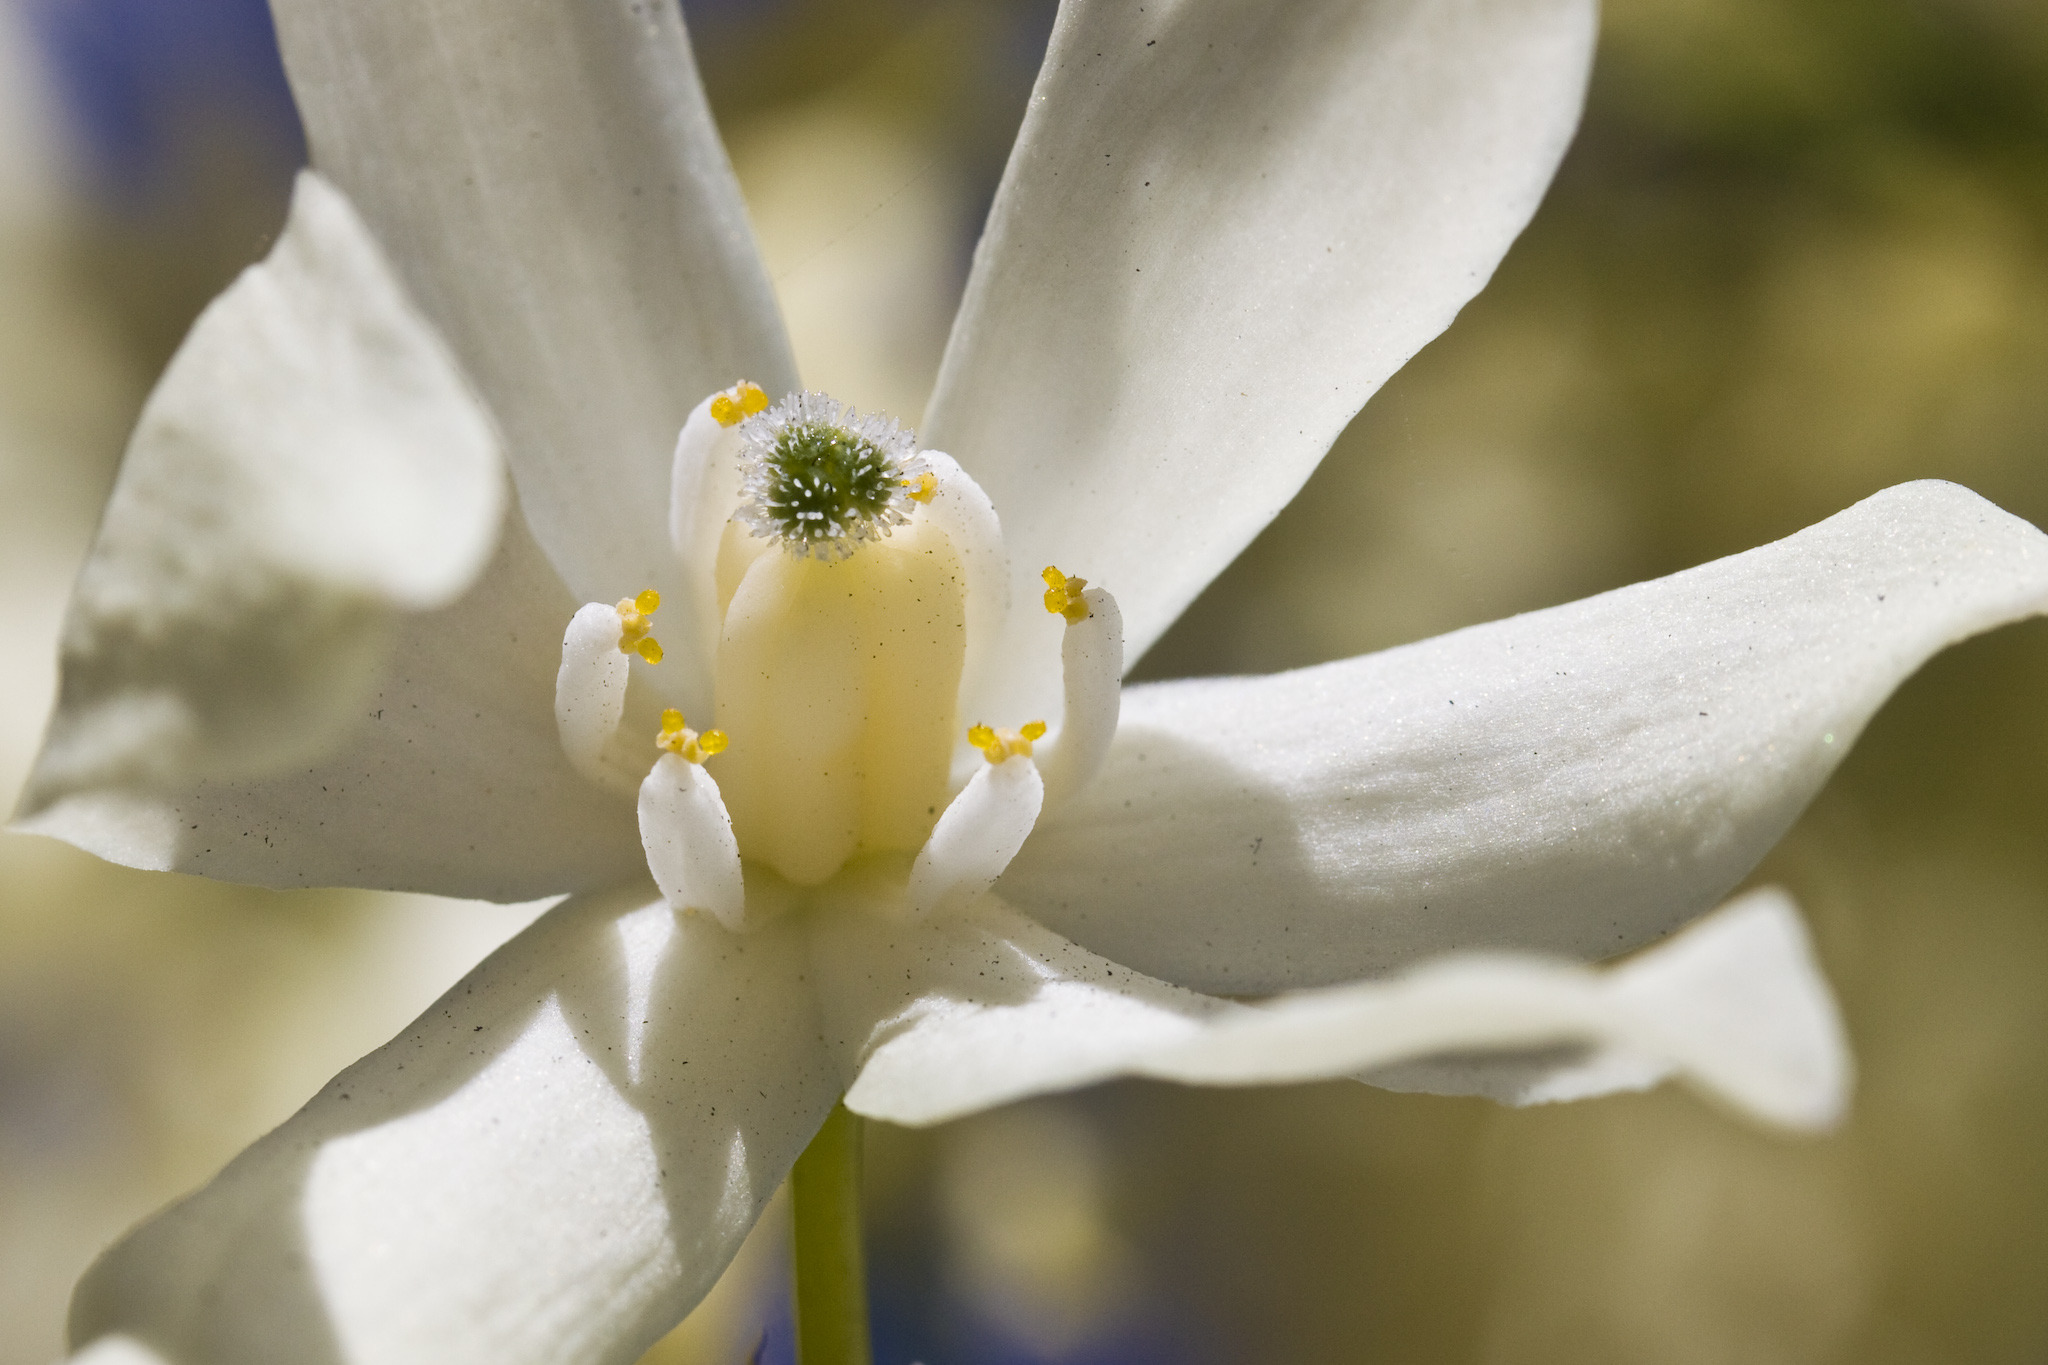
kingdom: Plantae
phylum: Tracheophyta
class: Liliopsida
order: Asparagales
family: Asparagaceae
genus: Hesperoyucca
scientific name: Hesperoyucca whipplei
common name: Our lord's-candle
